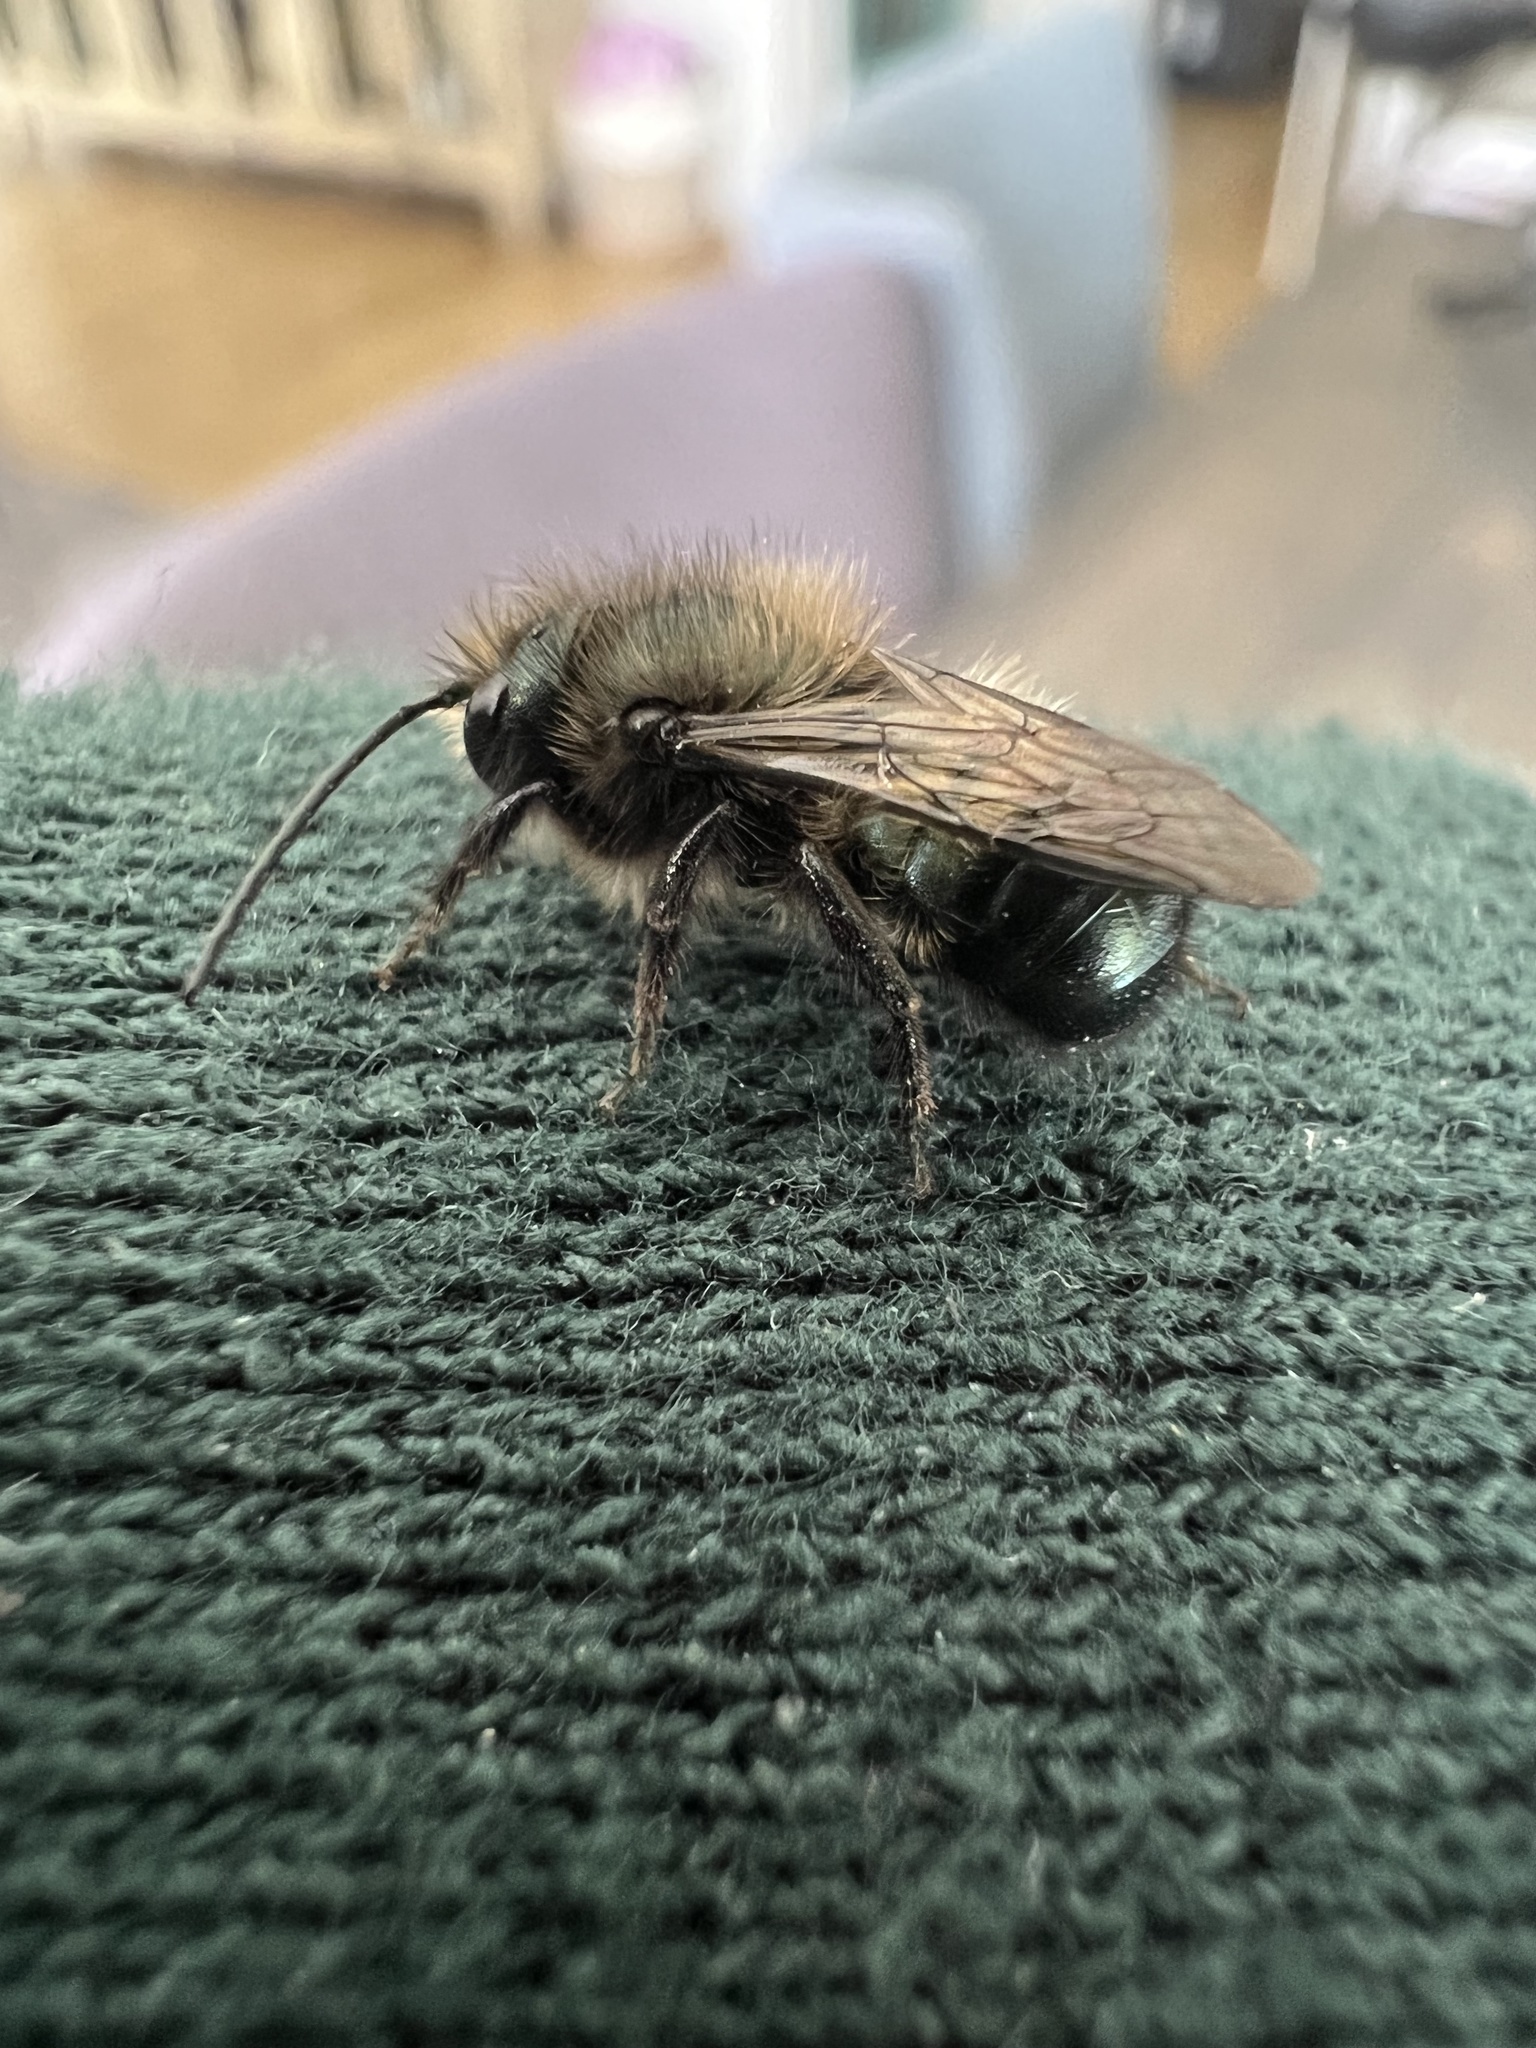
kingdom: Animalia
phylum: Arthropoda
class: Insecta
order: Hymenoptera
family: Megachilidae
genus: Osmia
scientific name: Osmia lignaria
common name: Blue orchard bee
